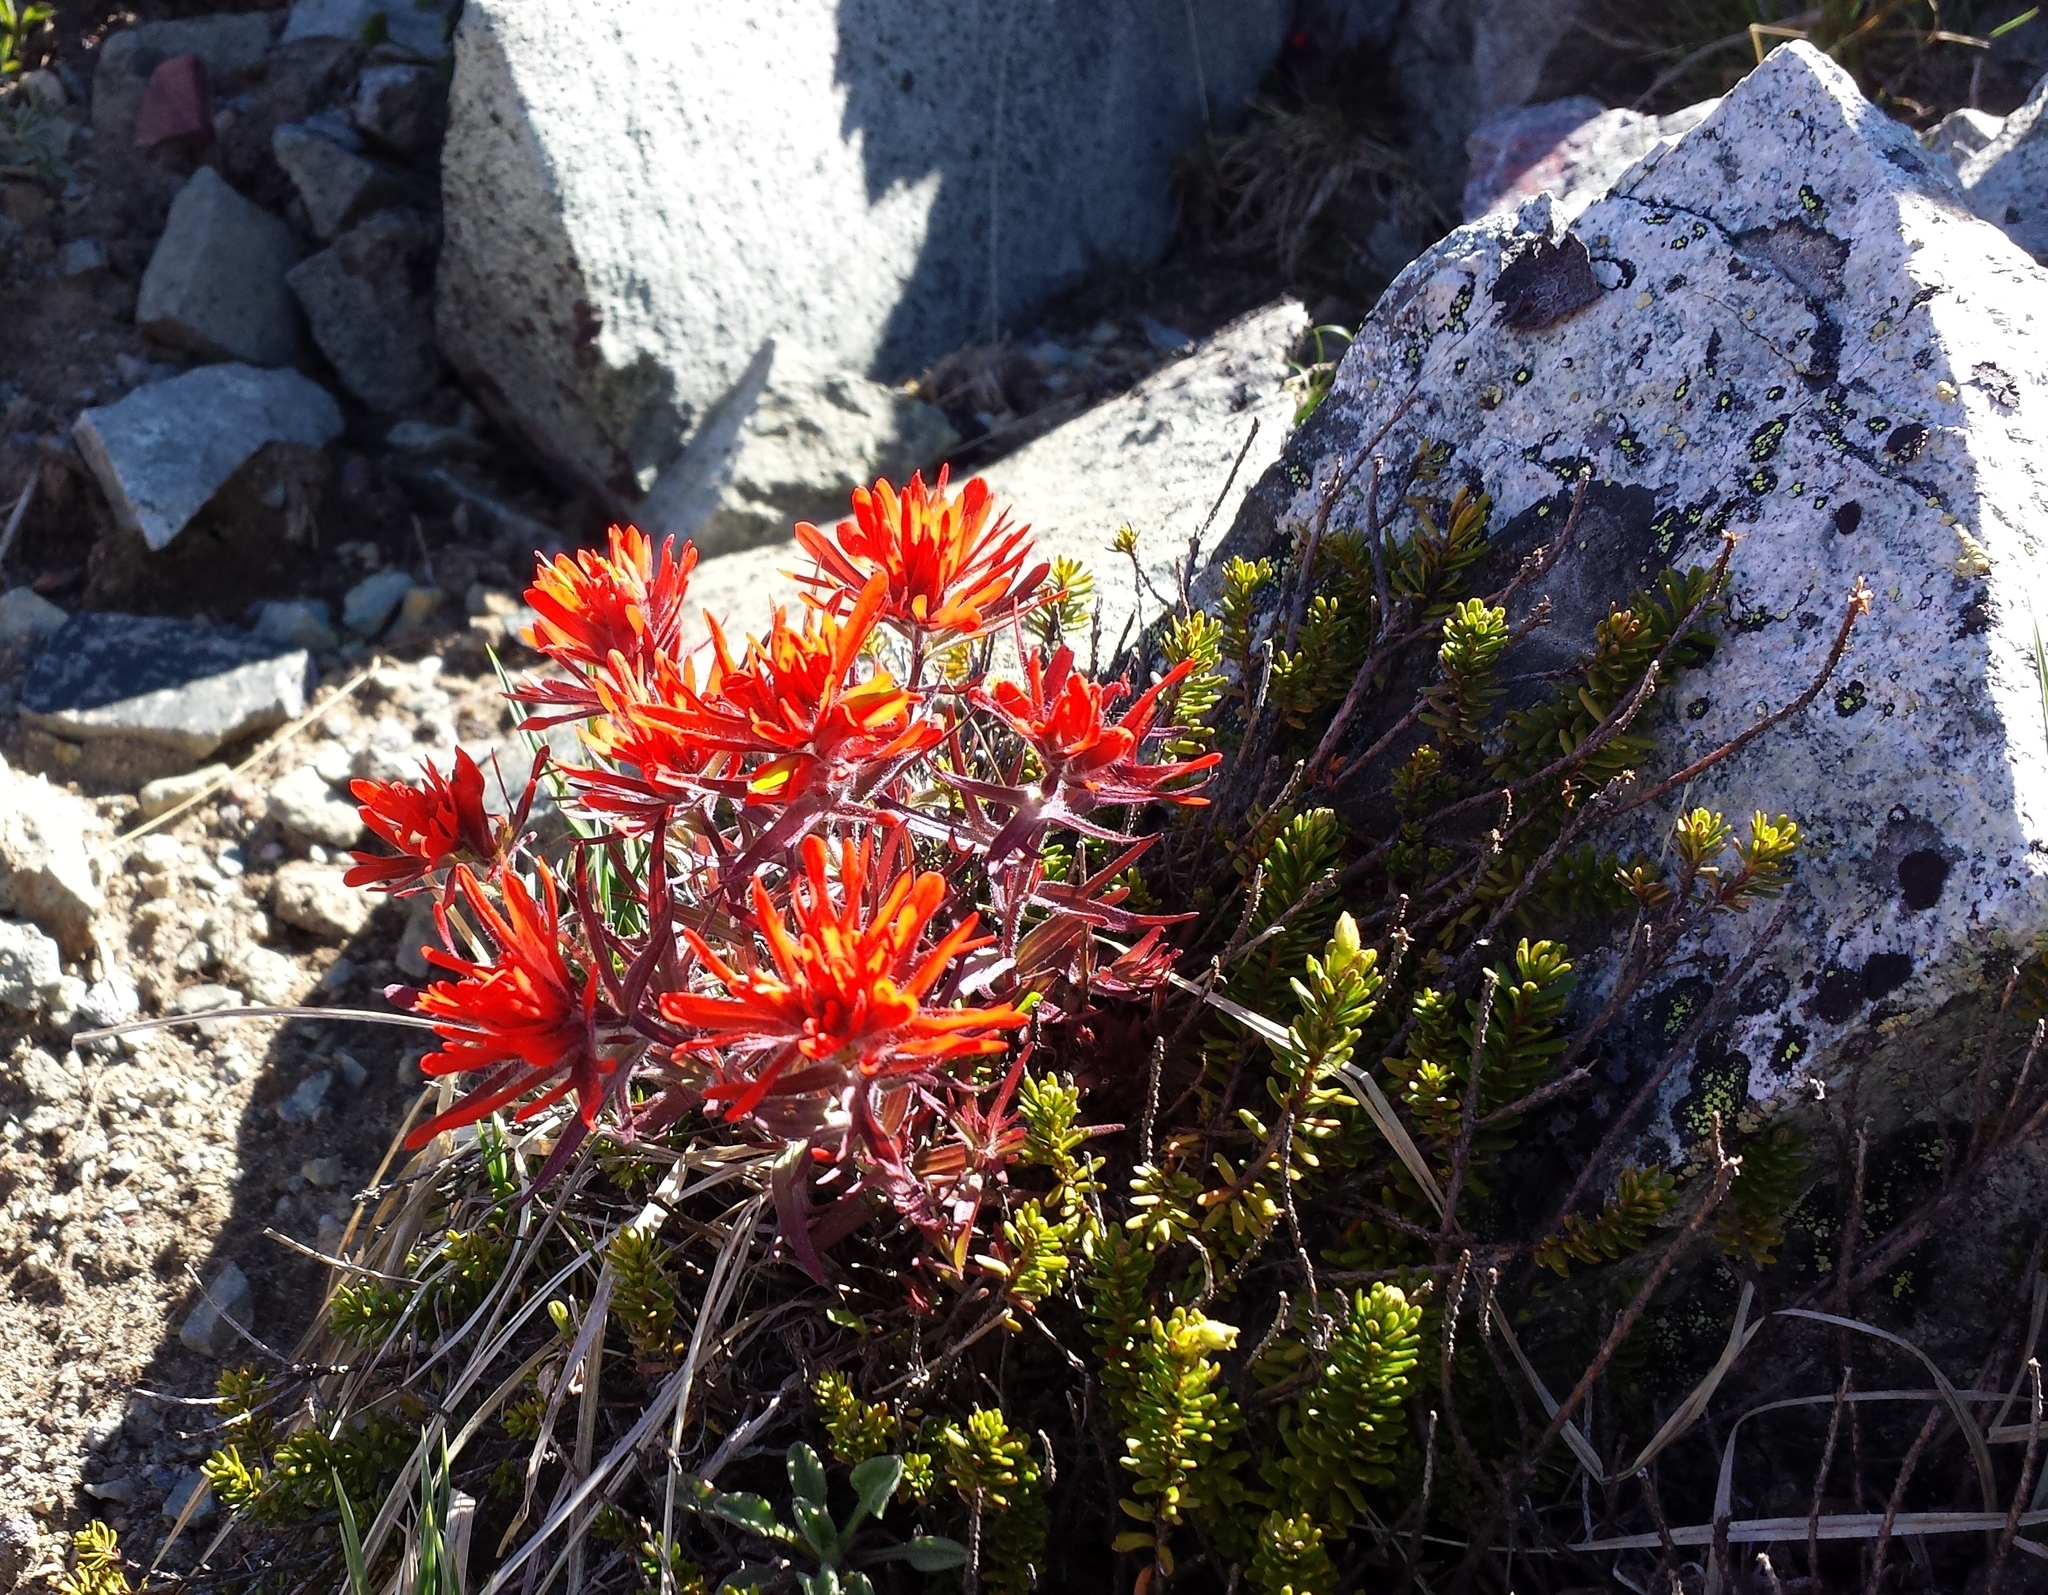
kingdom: Plantae
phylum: Tracheophyta
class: Magnoliopsida
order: Lamiales
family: Orobanchaceae
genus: Castilleja
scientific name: Castilleja rupicola
